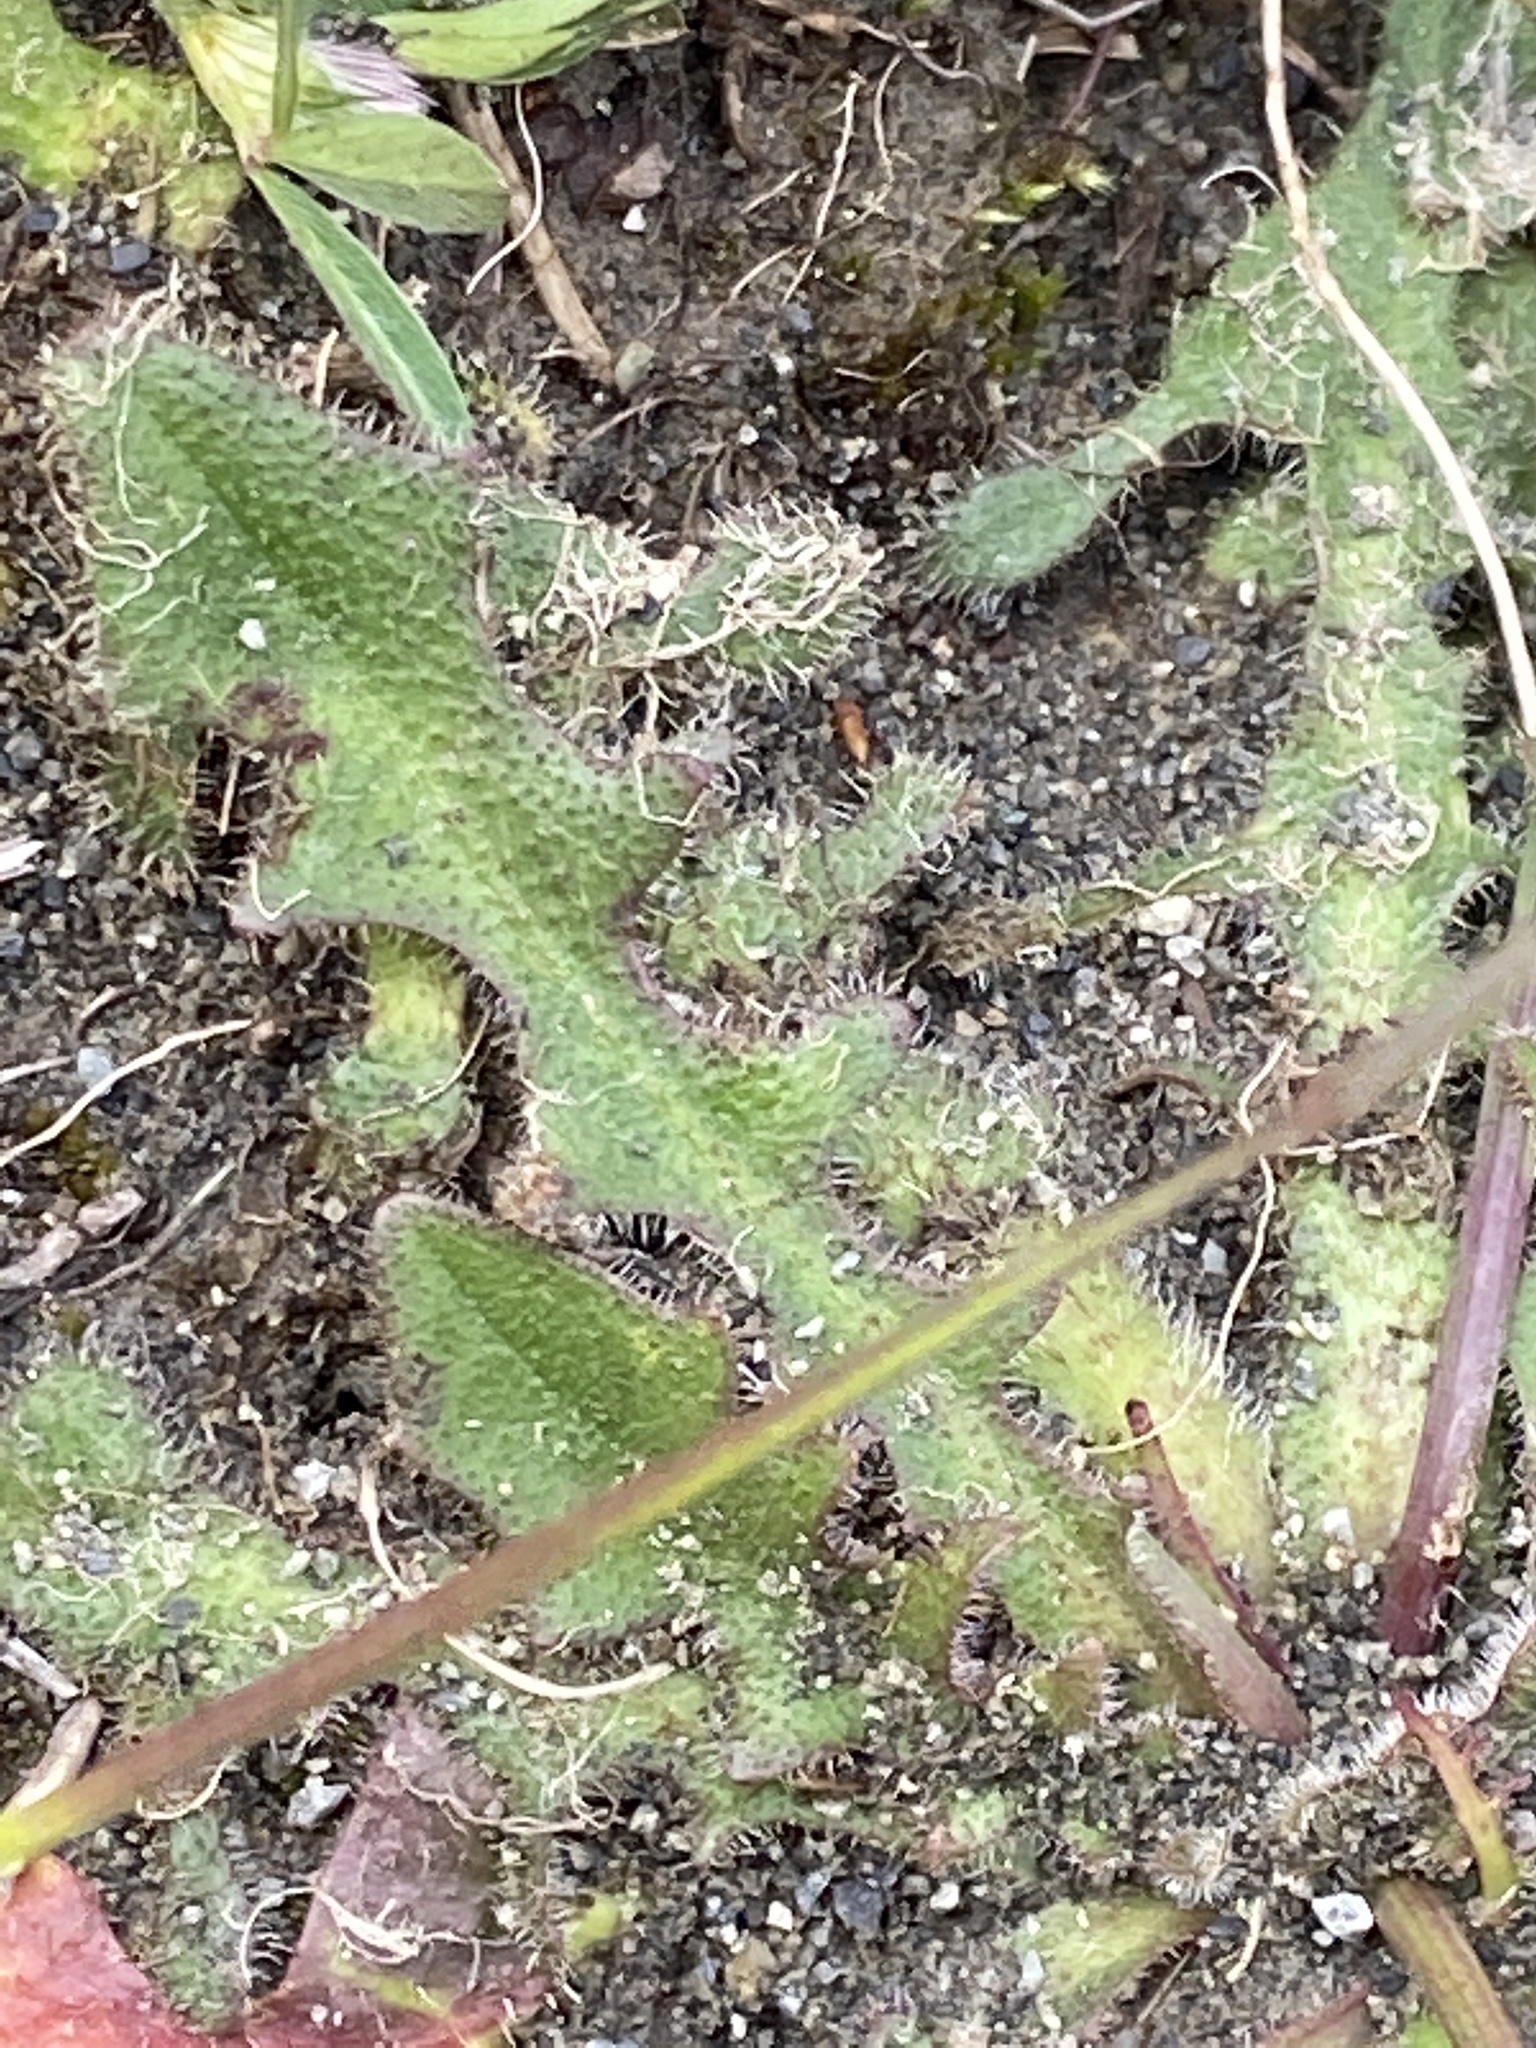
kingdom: Plantae
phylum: Tracheophyta
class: Magnoliopsida
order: Asterales
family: Asteraceae
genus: Hypochaeris
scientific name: Hypochaeris radicata
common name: Flatweed
